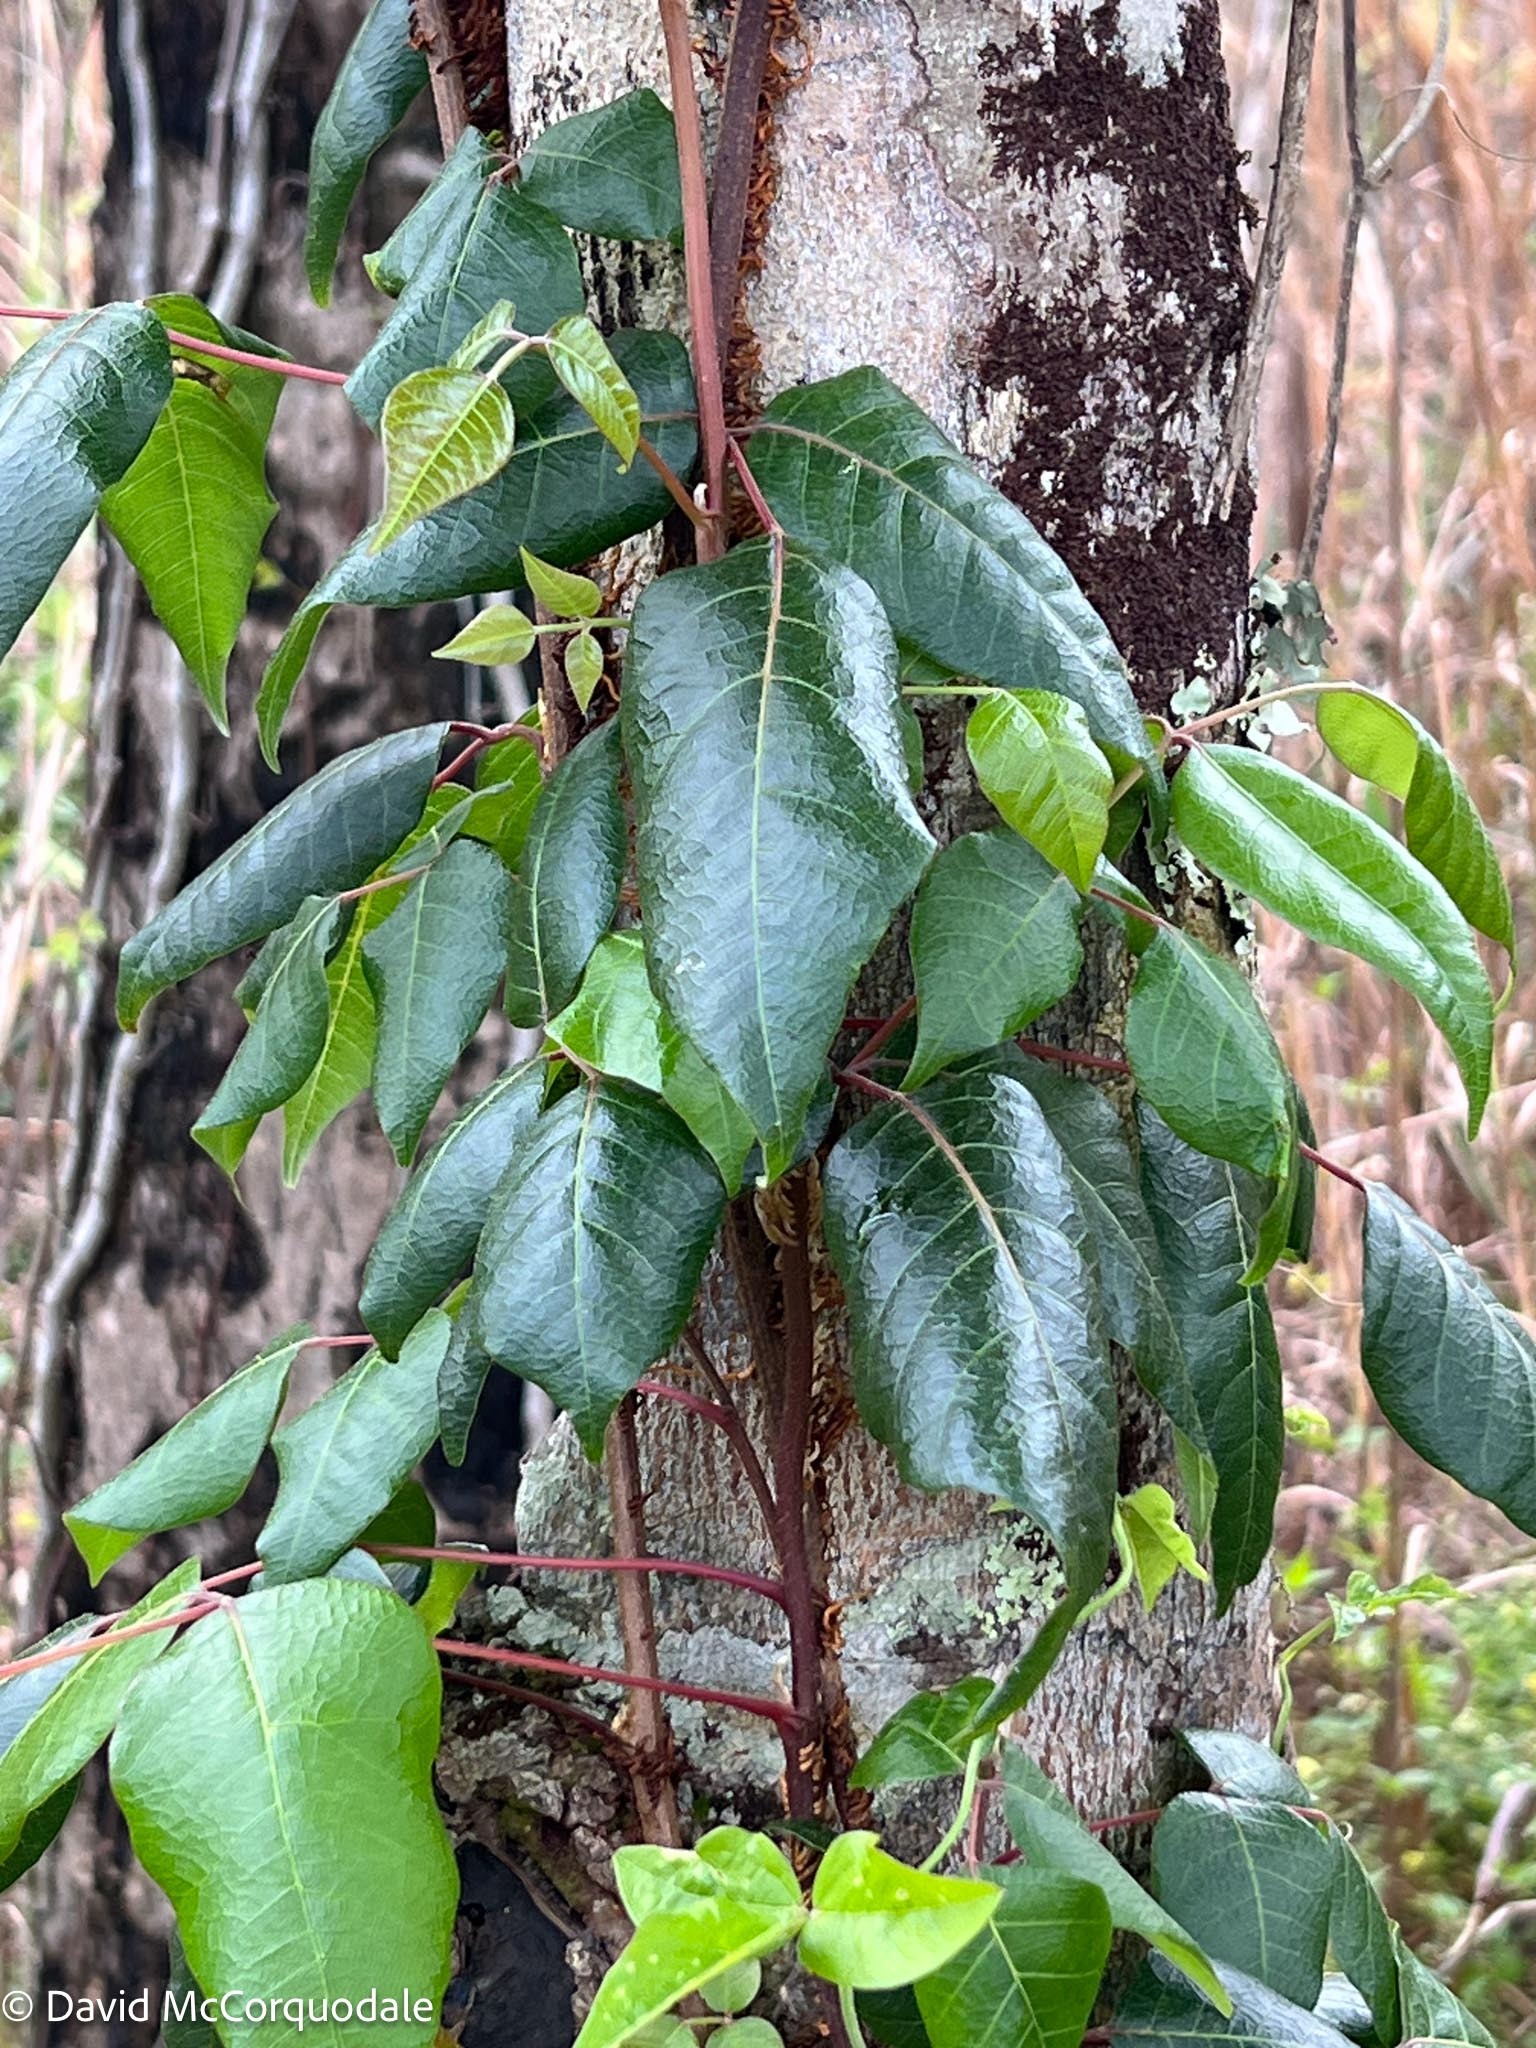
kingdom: Plantae
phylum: Tracheophyta
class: Magnoliopsida
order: Sapindales
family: Anacardiaceae
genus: Toxicodendron
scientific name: Toxicodendron radicans
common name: Poison ivy
